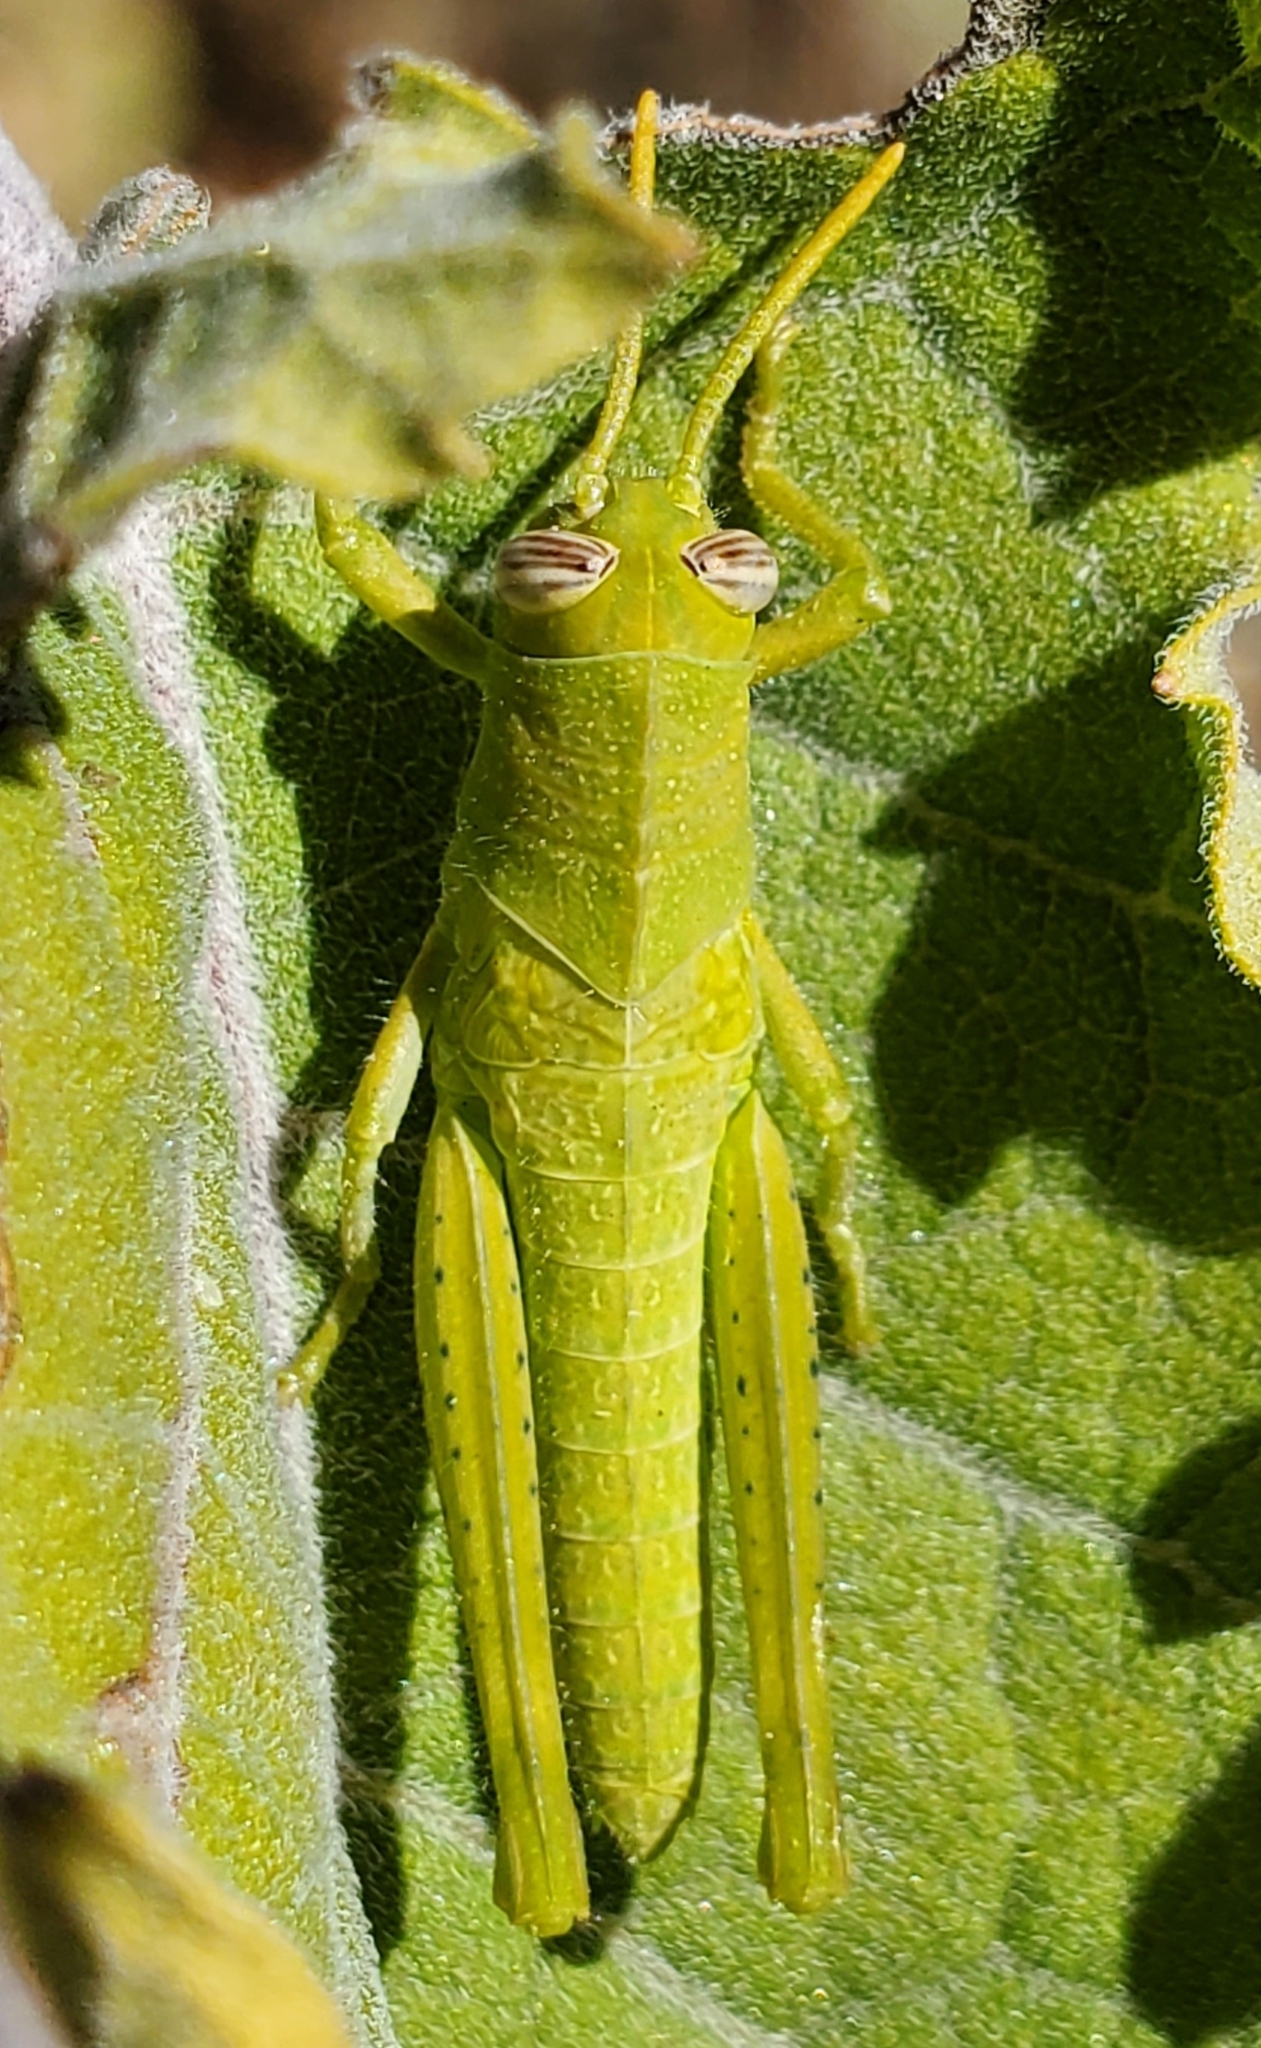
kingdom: Animalia
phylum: Arthropoda
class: Insecta
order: Orthoptera
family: Acrididae
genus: Schistocerca
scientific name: Schistocerca nitens
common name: Vagrant grasshopper
